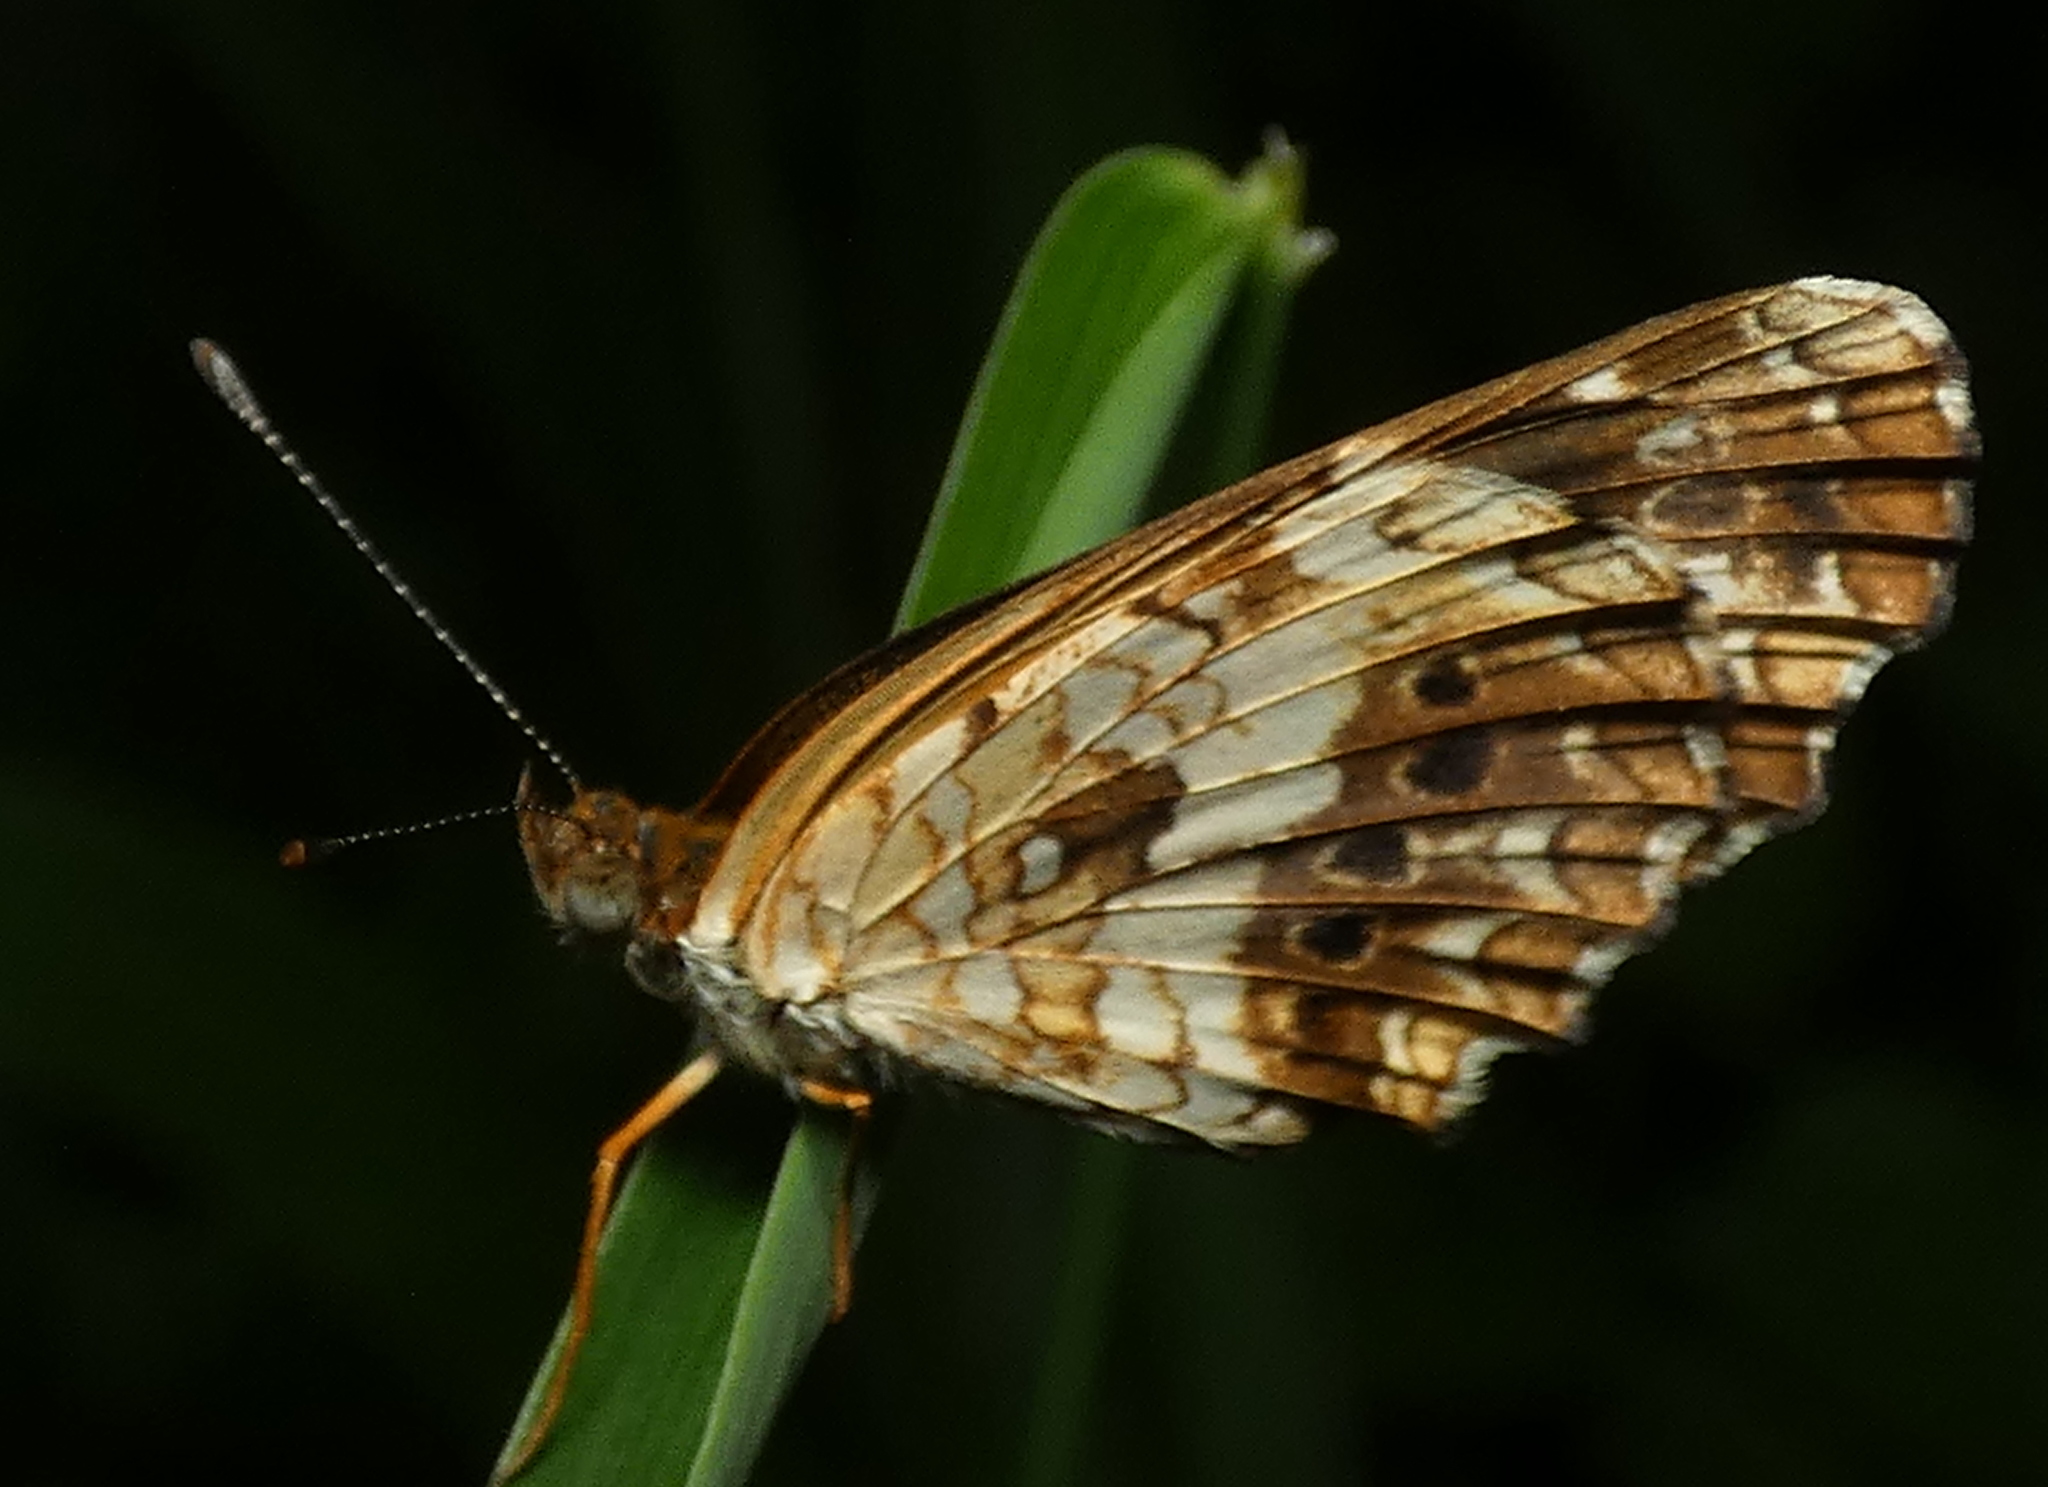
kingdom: Animalia
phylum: Arthropoda
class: Insecta
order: Lepidoptera
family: Nymphalidae
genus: Ortilia
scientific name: Ortilia ithra
